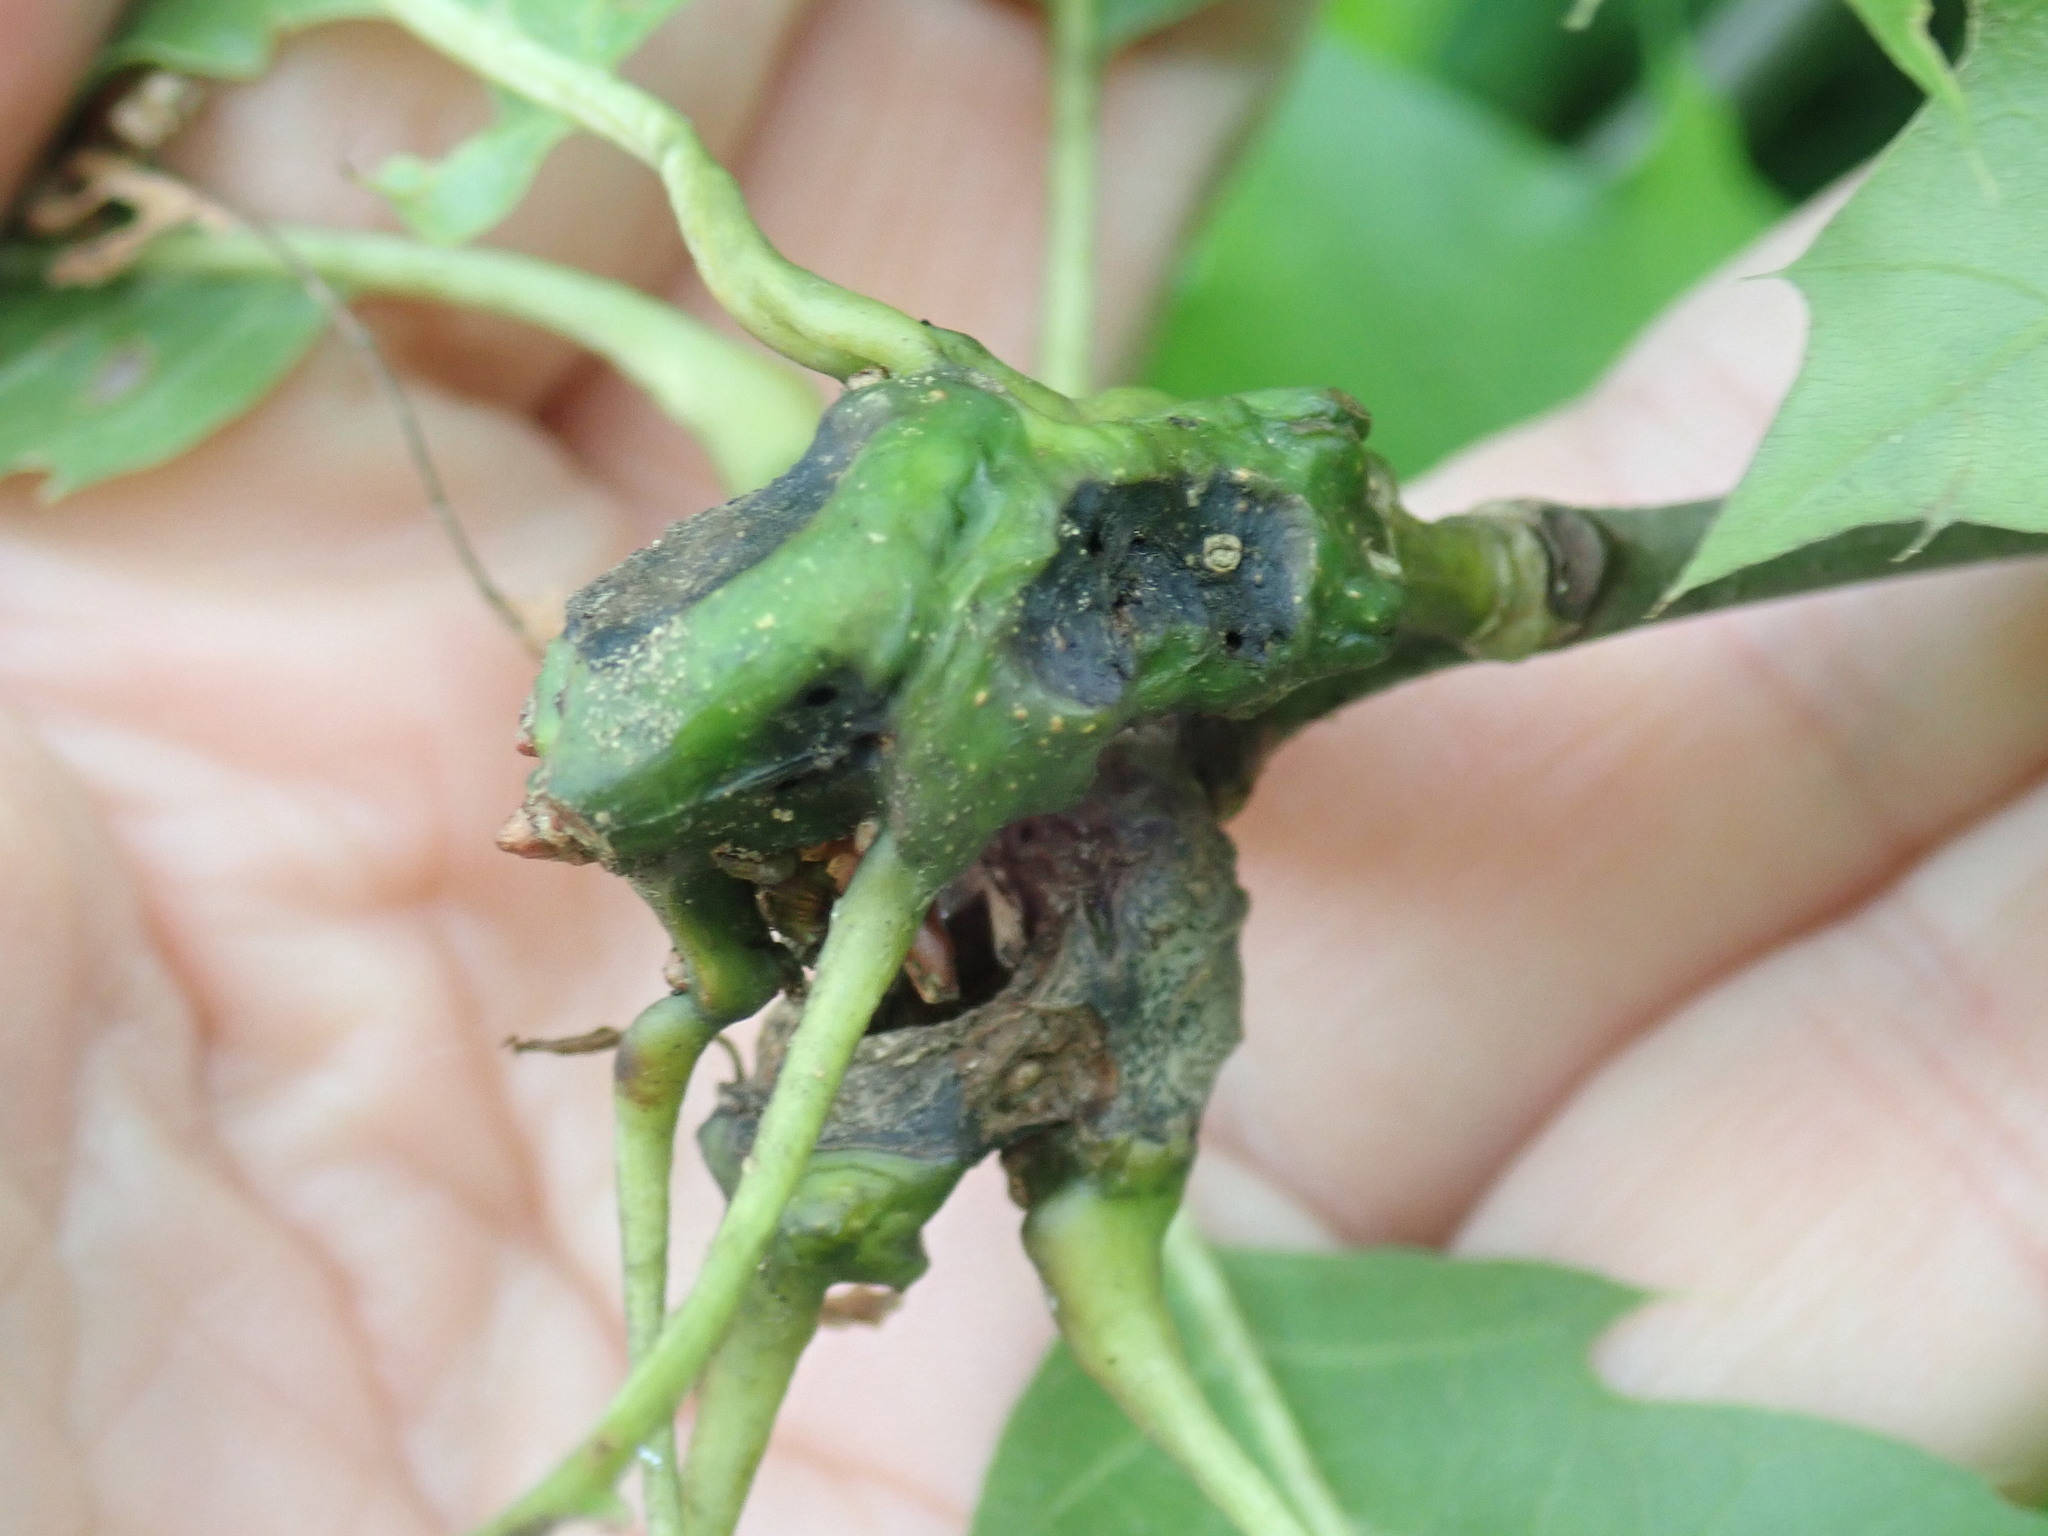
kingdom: Animalia
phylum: Arthropoda
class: Insecta
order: Hymenoptera
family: Cynipidae
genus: Callirhytis
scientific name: Callirhytis
